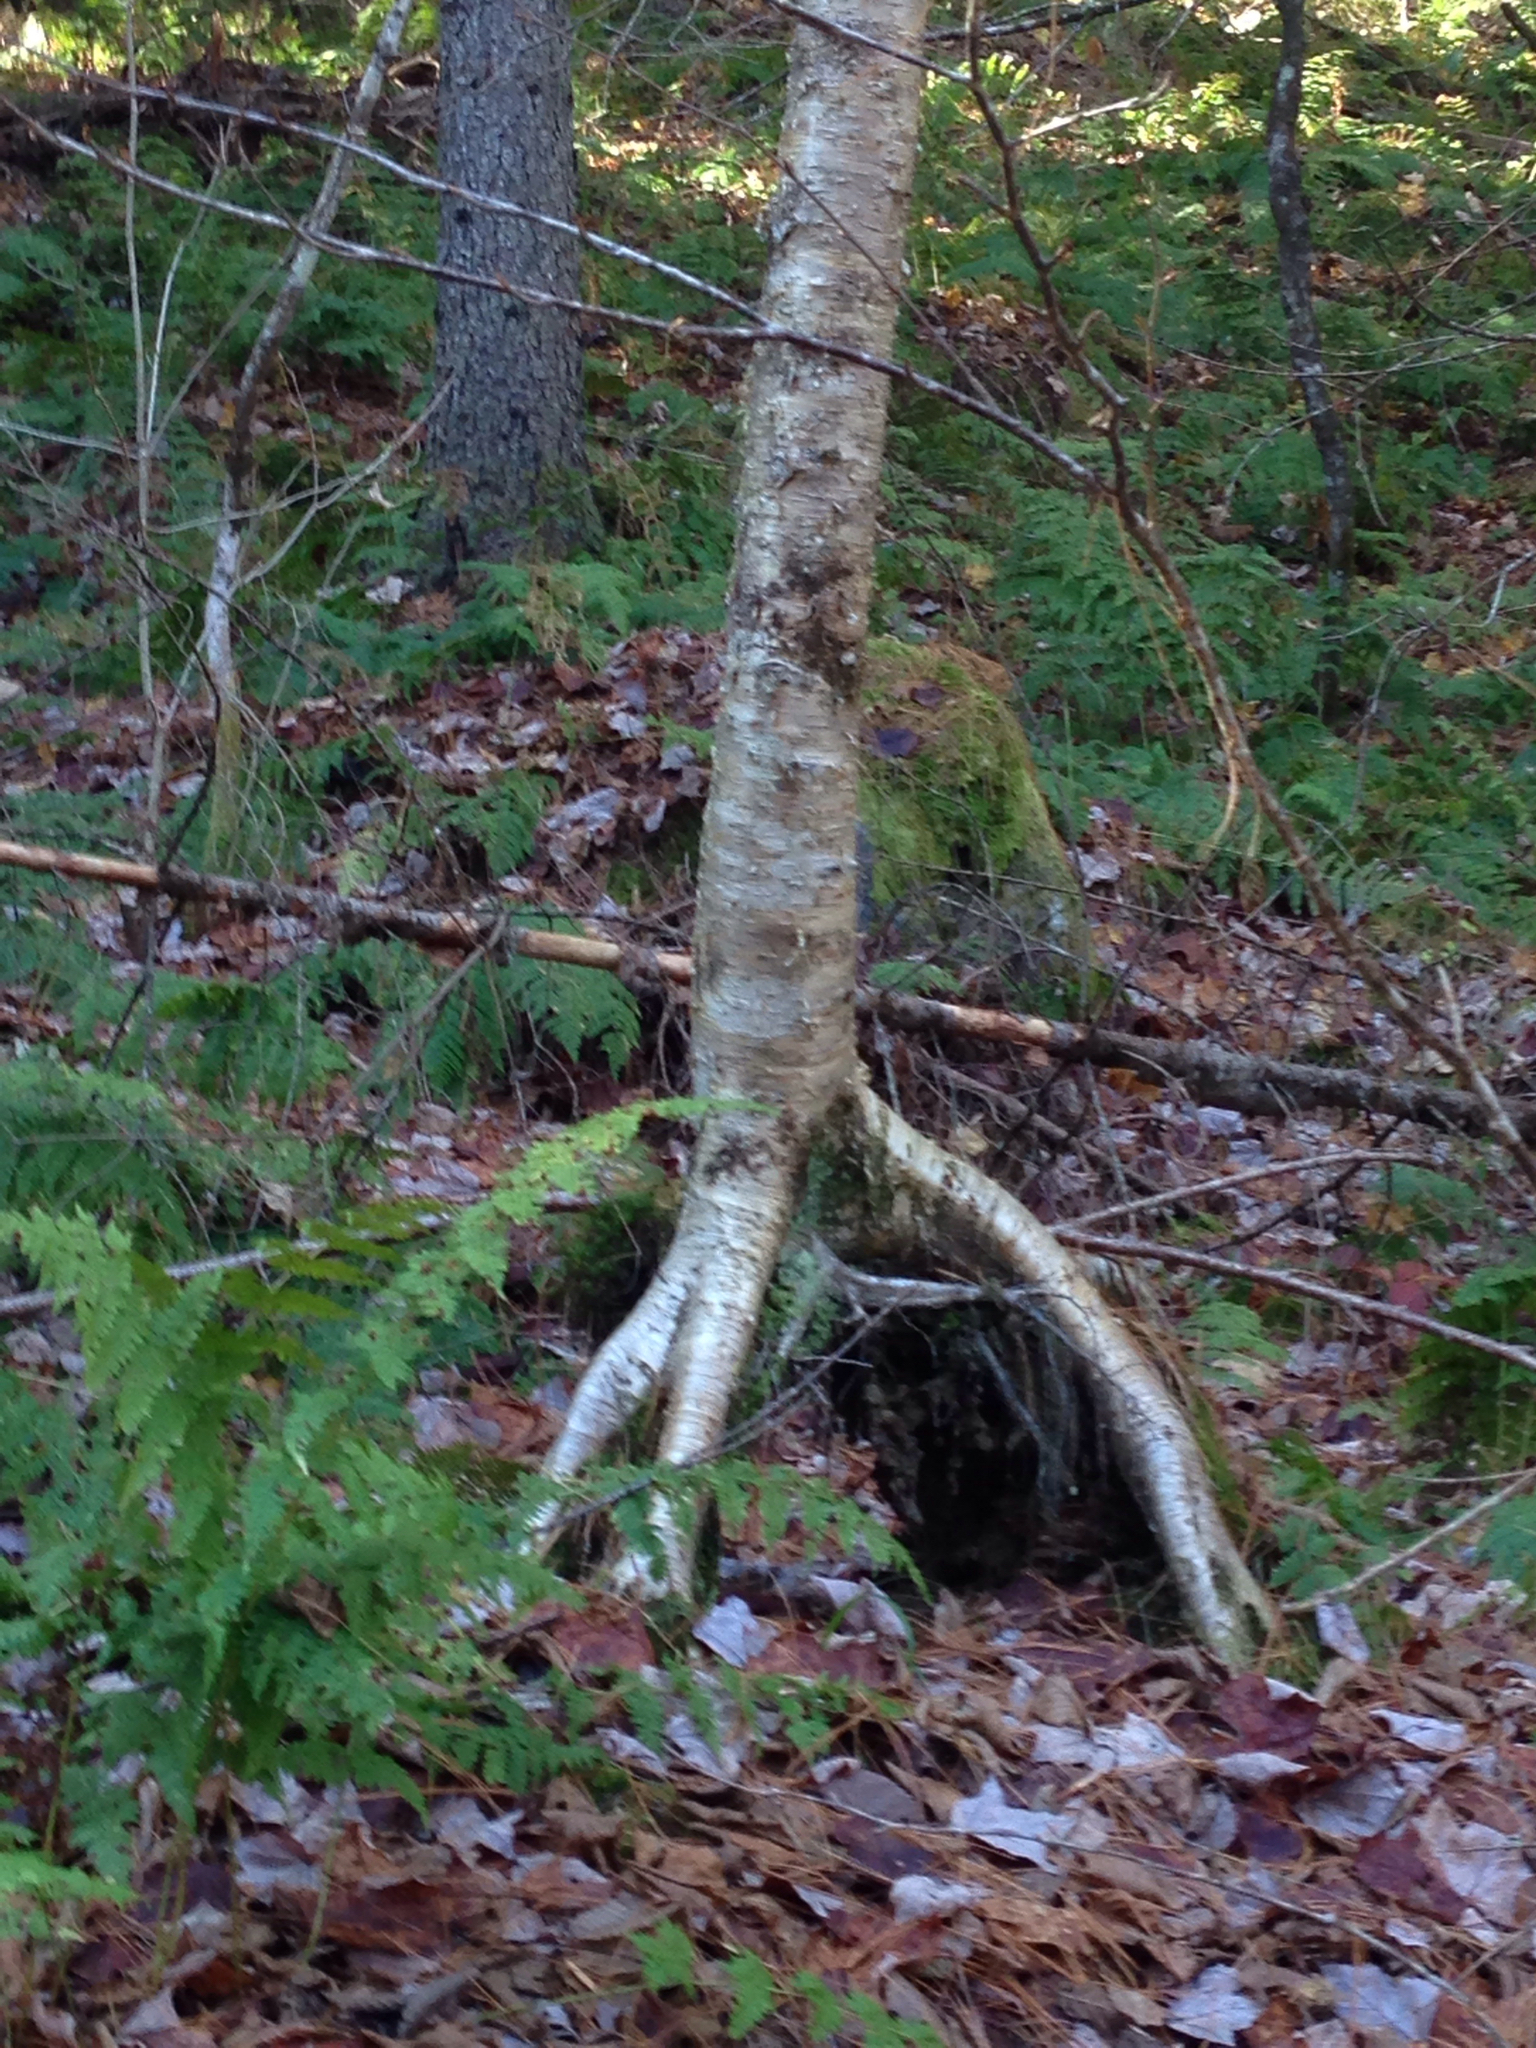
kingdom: Plantae
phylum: Tracheophyta
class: Magnoliopsida
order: Fagales
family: Betulaceae
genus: Betula
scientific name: Betula alleghaniensis
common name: Yellow birch
